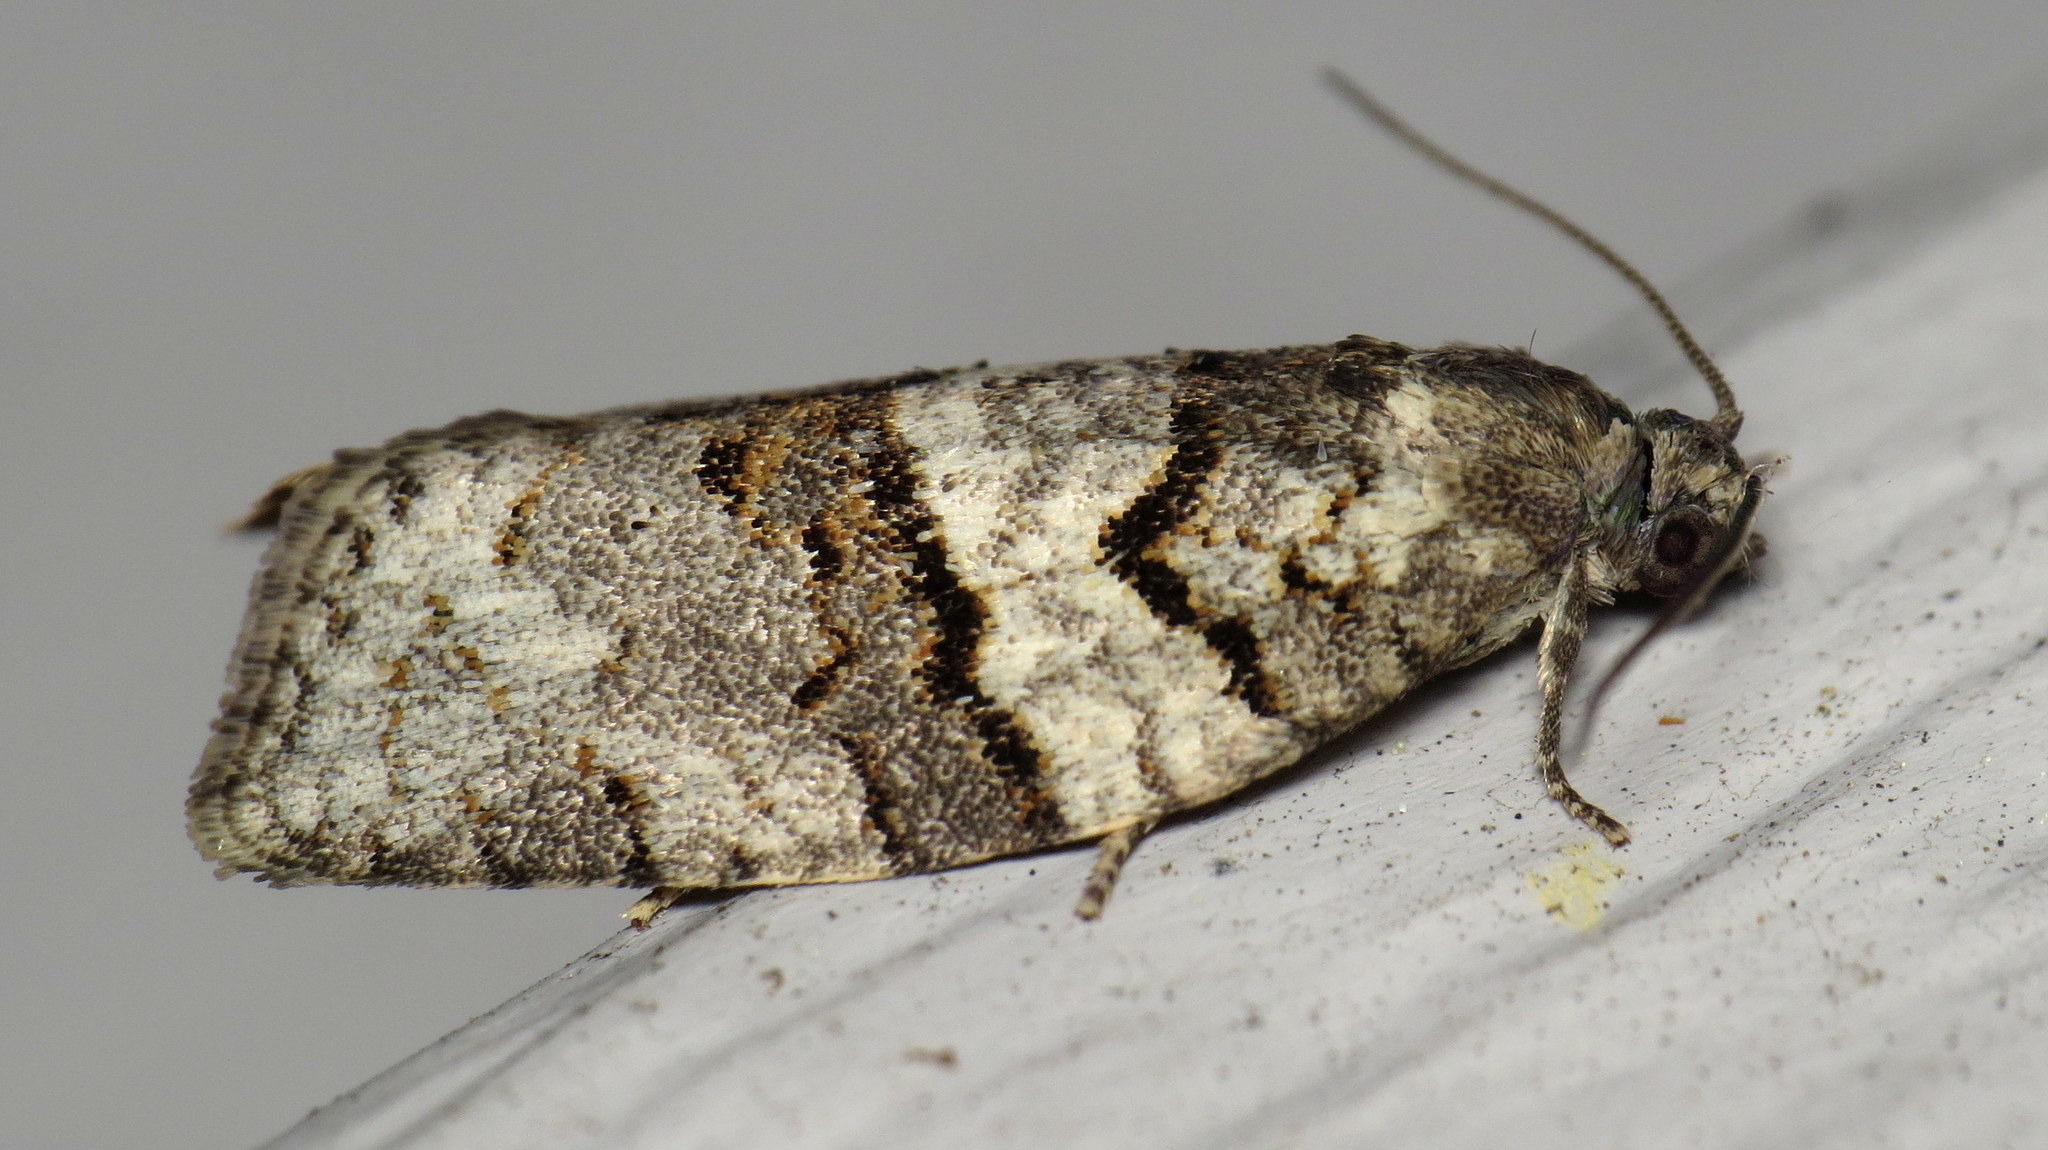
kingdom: Animalia
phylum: Arthropoda
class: Insecta
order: Lepidoptera
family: Tortricidae
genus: Syndemis
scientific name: Syndemis afflictana
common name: Gray leafroller moth
